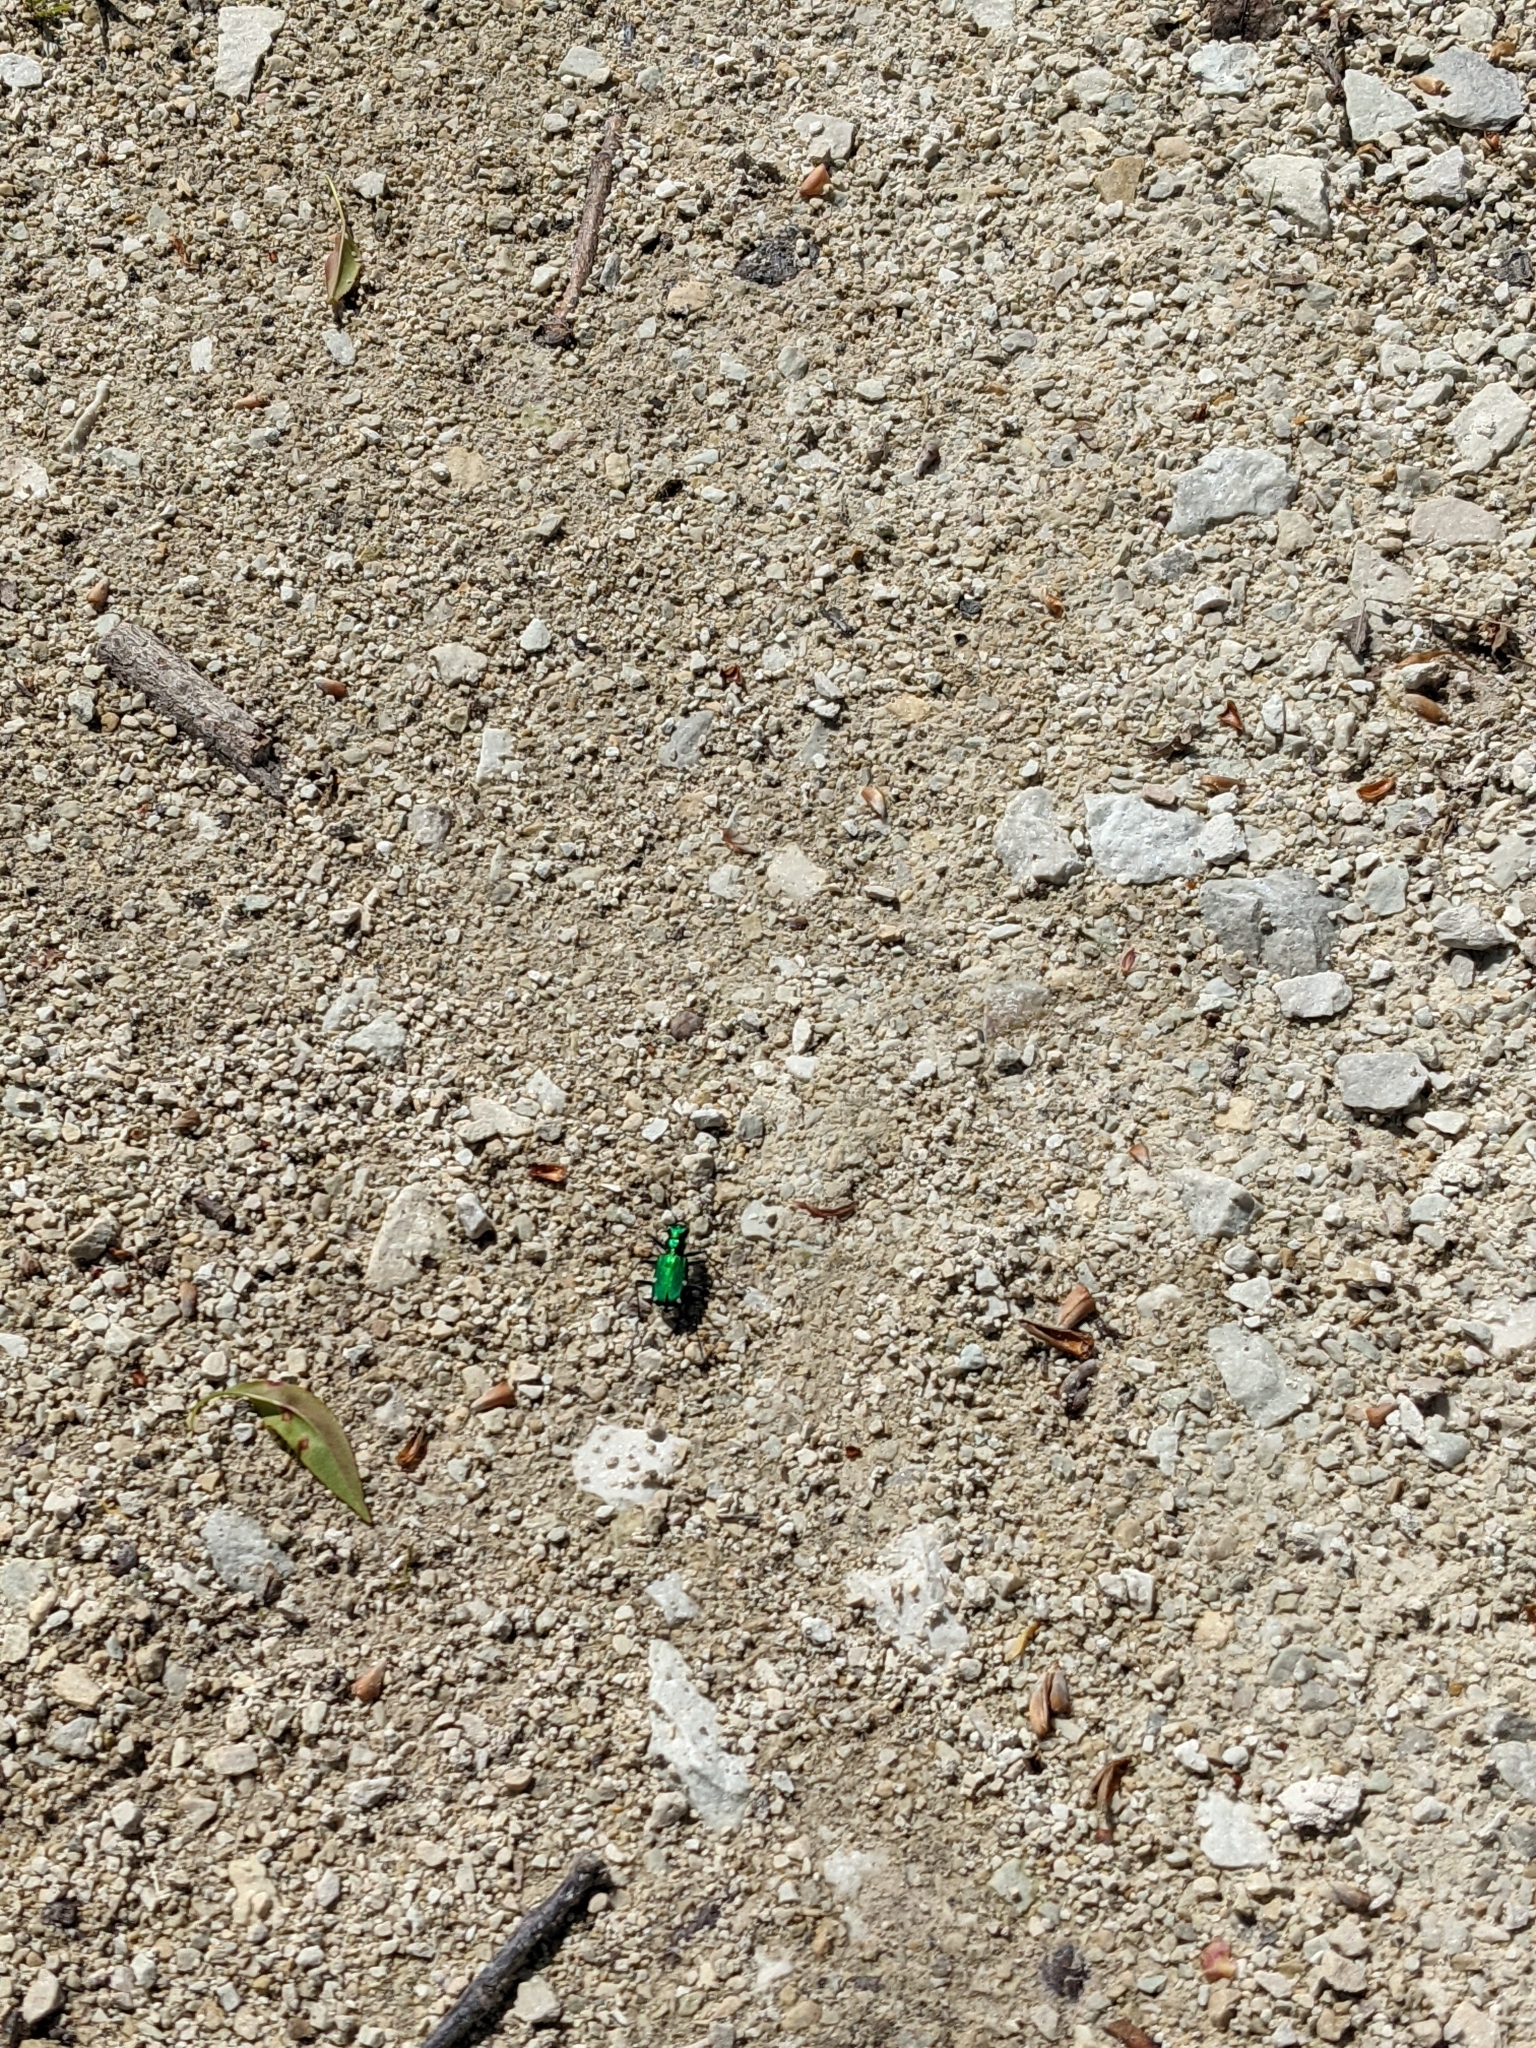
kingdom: Animalia
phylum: Arthropoda
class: Insecta
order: Coleoptera
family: Carabidae
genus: Cicindela
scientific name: Cicindela sexguttata
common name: Six-spotted tiger beetle
